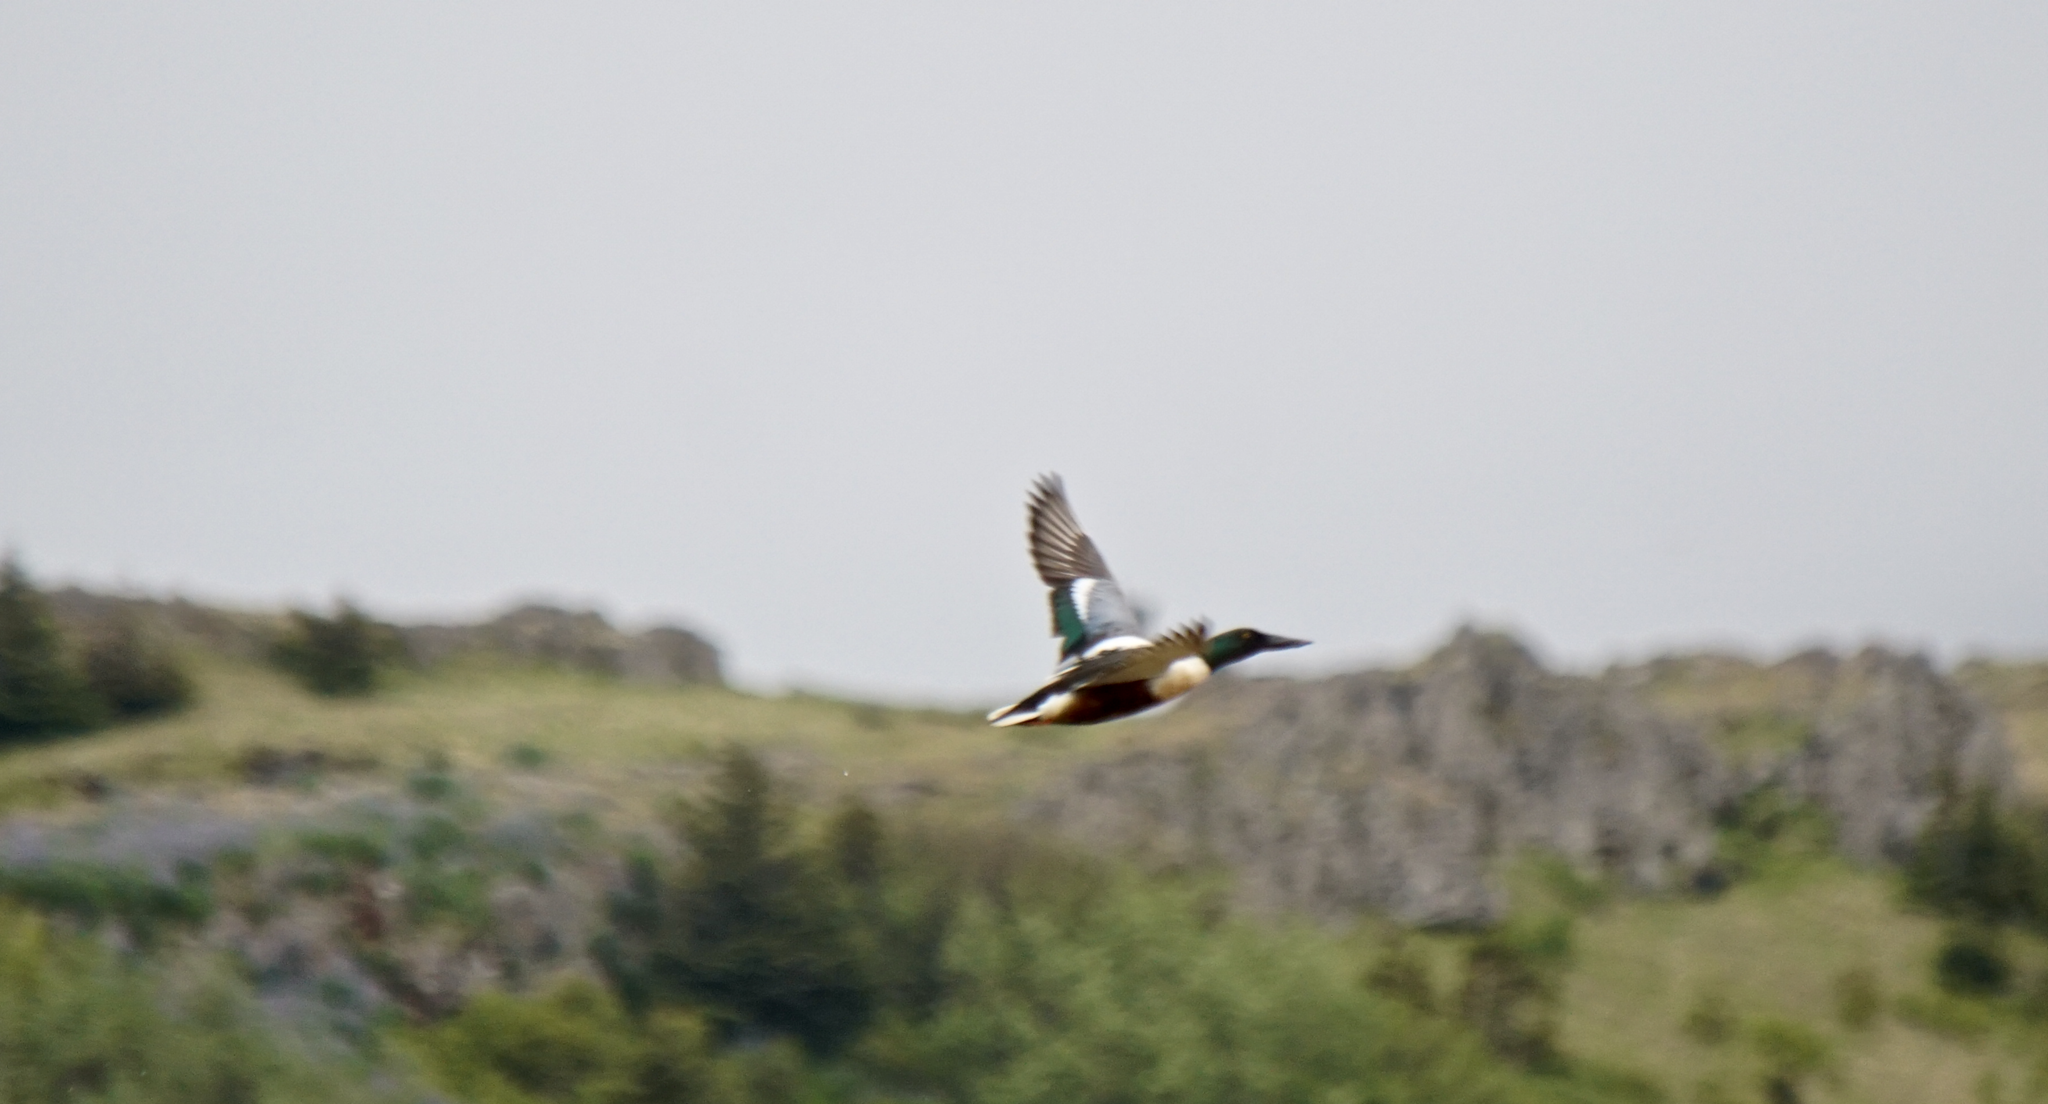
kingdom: Animalia
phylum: Chordata
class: Aves
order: Anseriformes
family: Anatidae
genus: Spatula
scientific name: Spatula clypeata
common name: Northern shoveler
